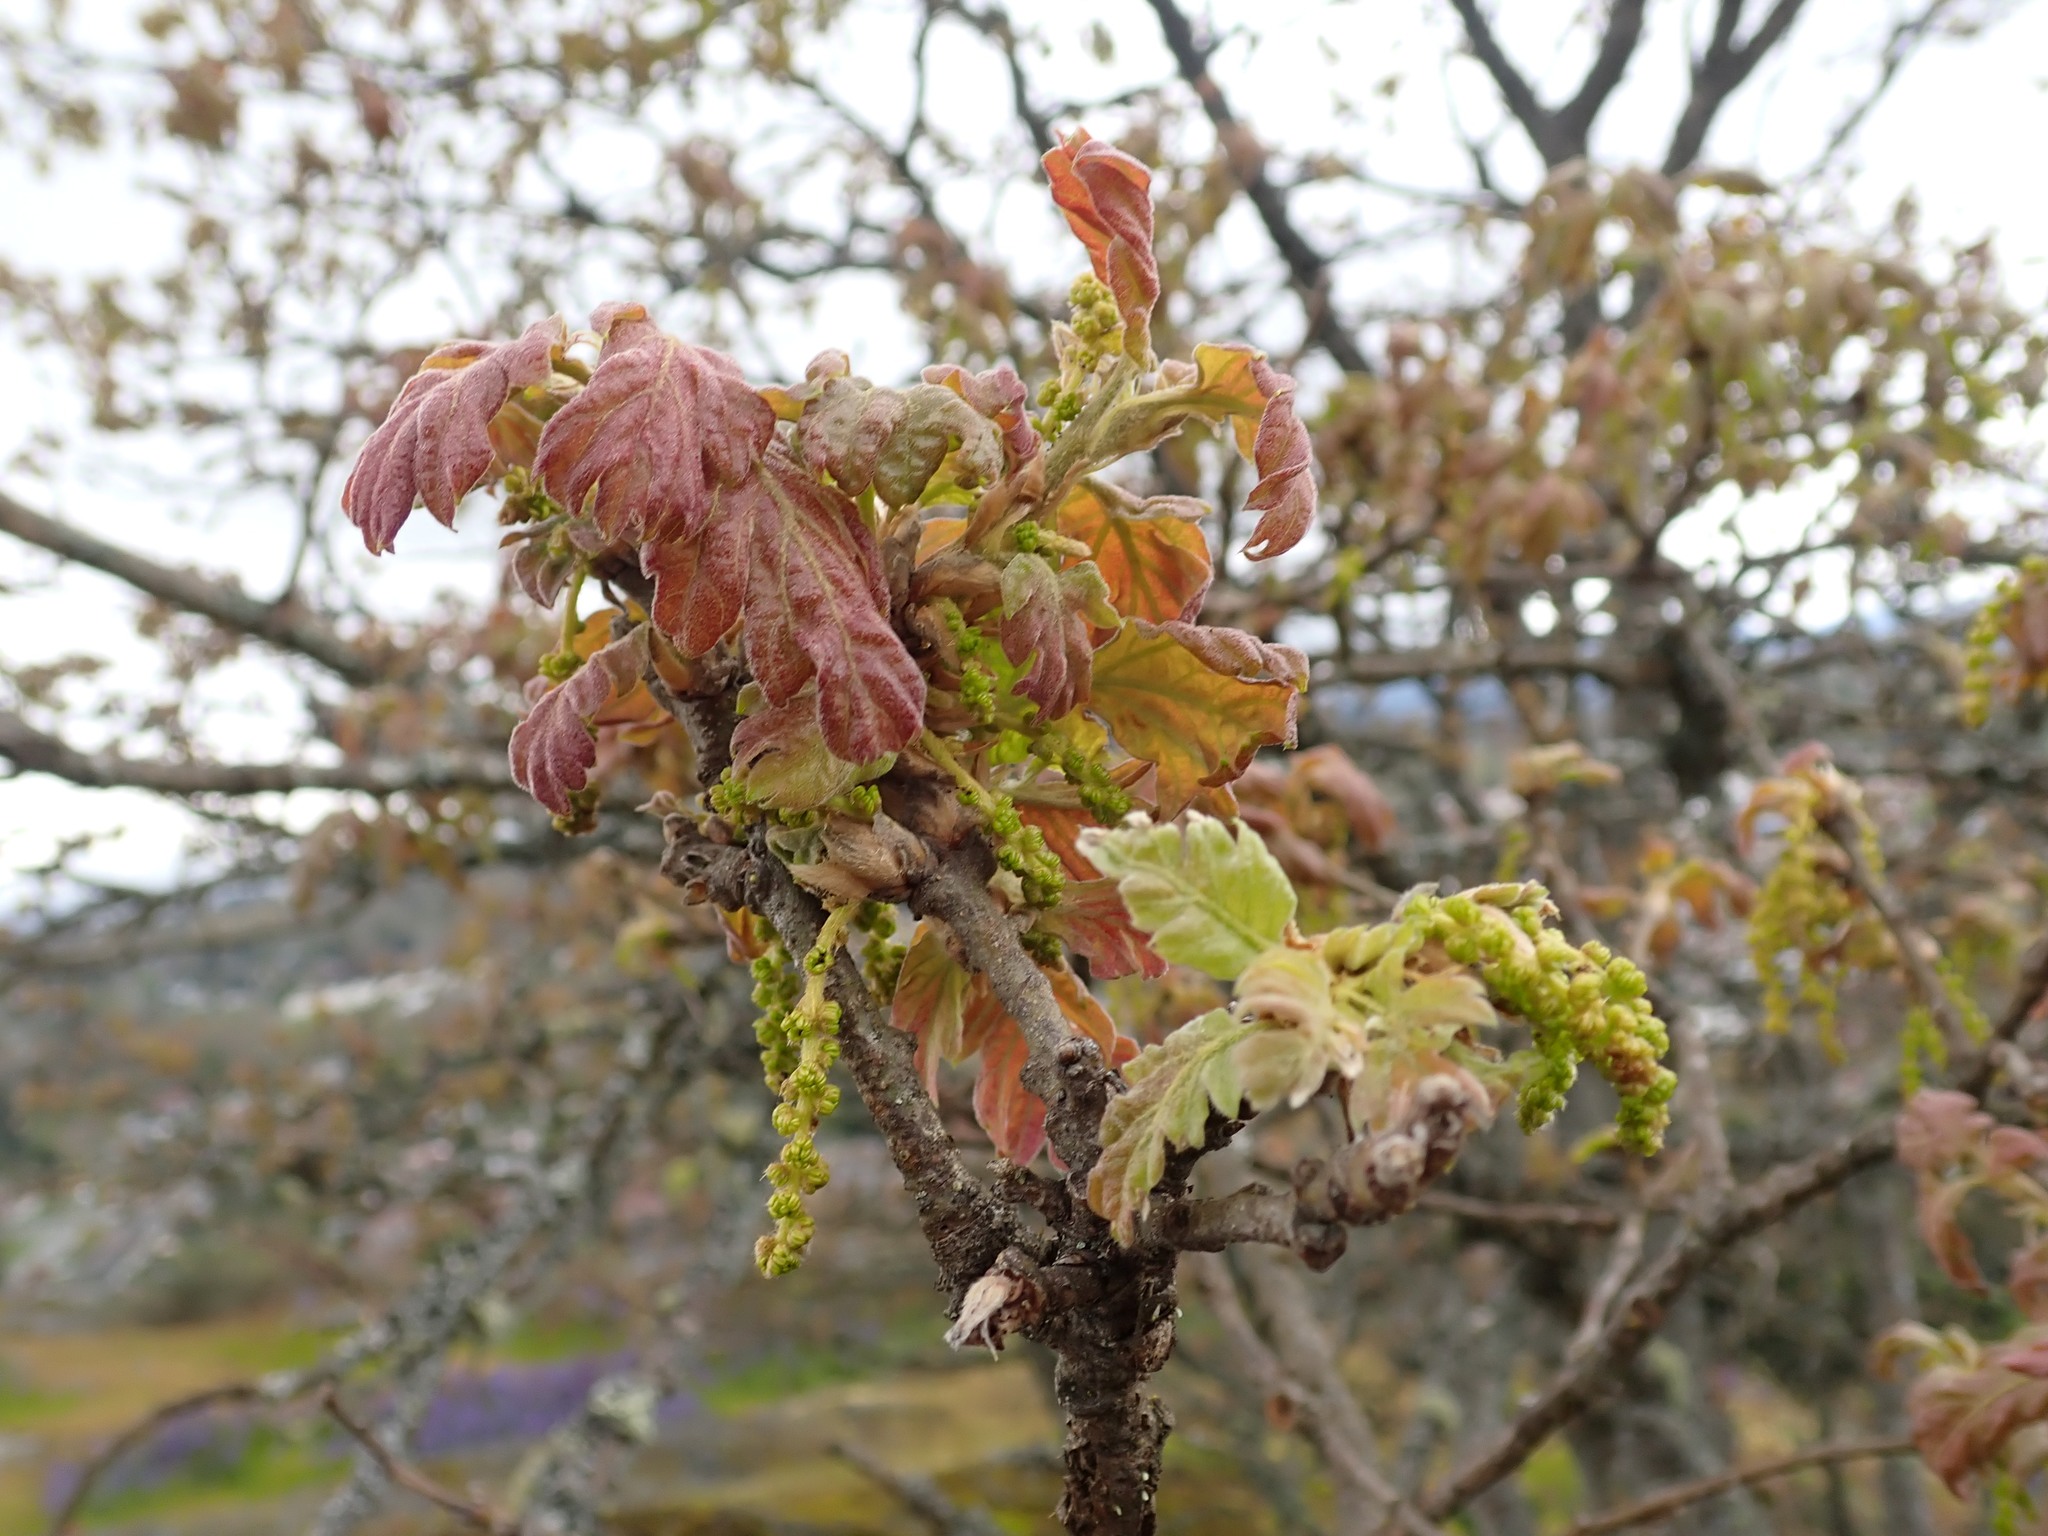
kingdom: Plantae
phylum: Tracheophyta
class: Magnoliopsida
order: Fagales
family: Fagaceae
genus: Quercus
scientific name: Quercus garryana
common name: Garry oak
